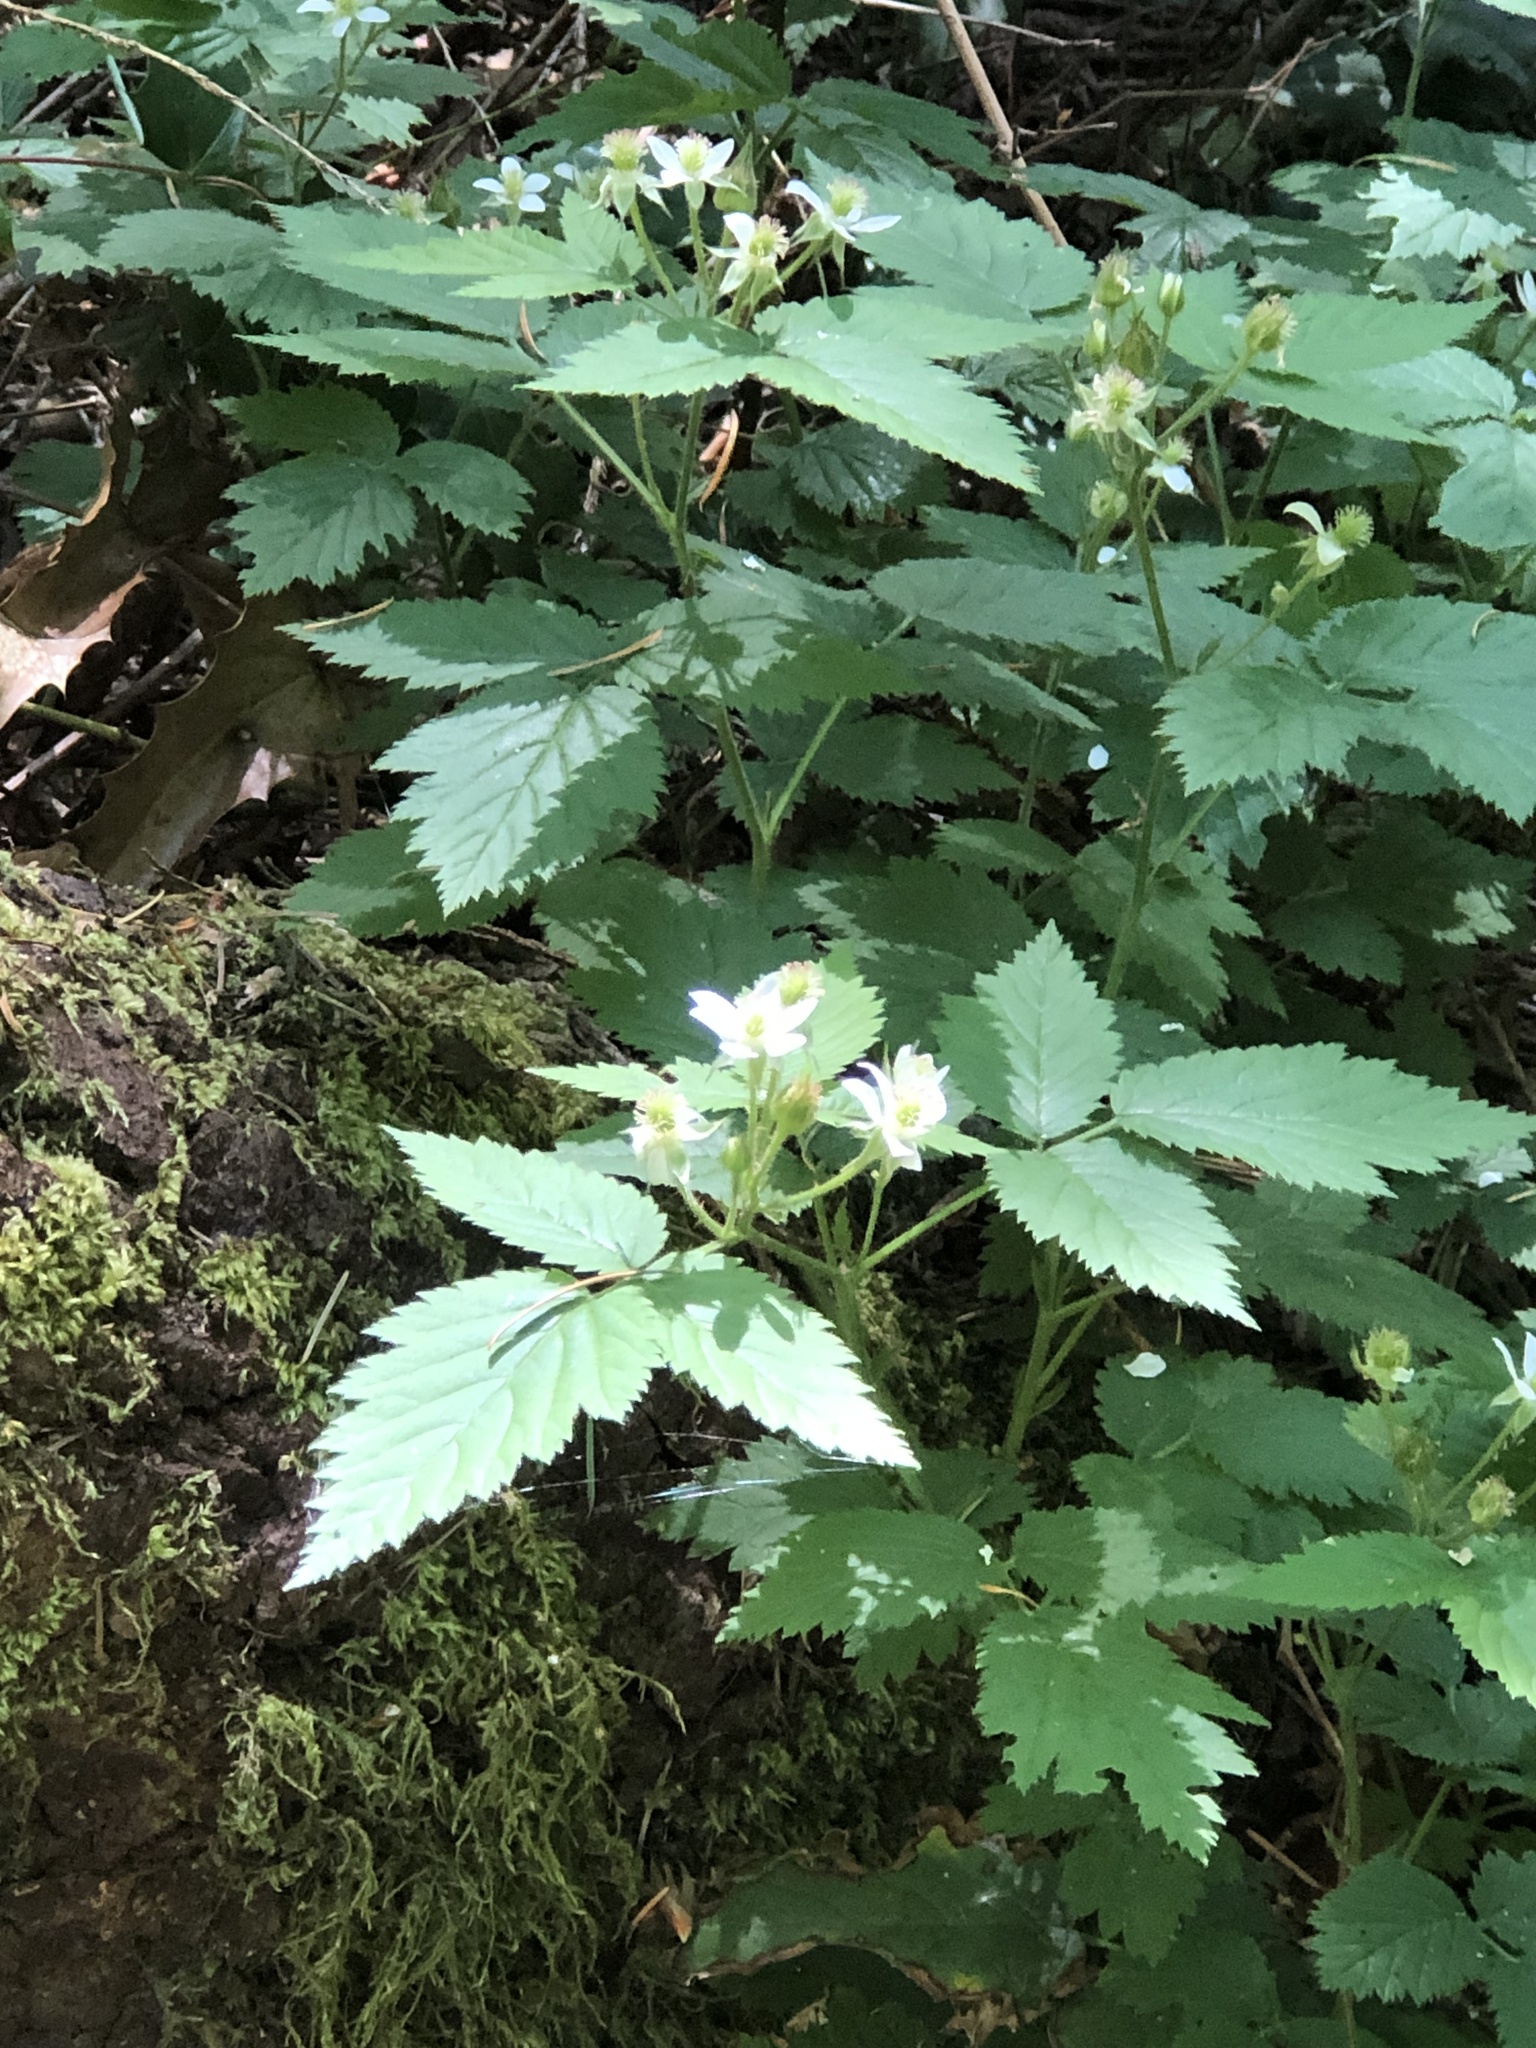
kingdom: Plantae
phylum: Tracheophyta
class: Magnoliopsida
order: Rosales
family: Rosaceae
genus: Rubus
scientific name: Rubus ursinus
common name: Pacific blackberry
